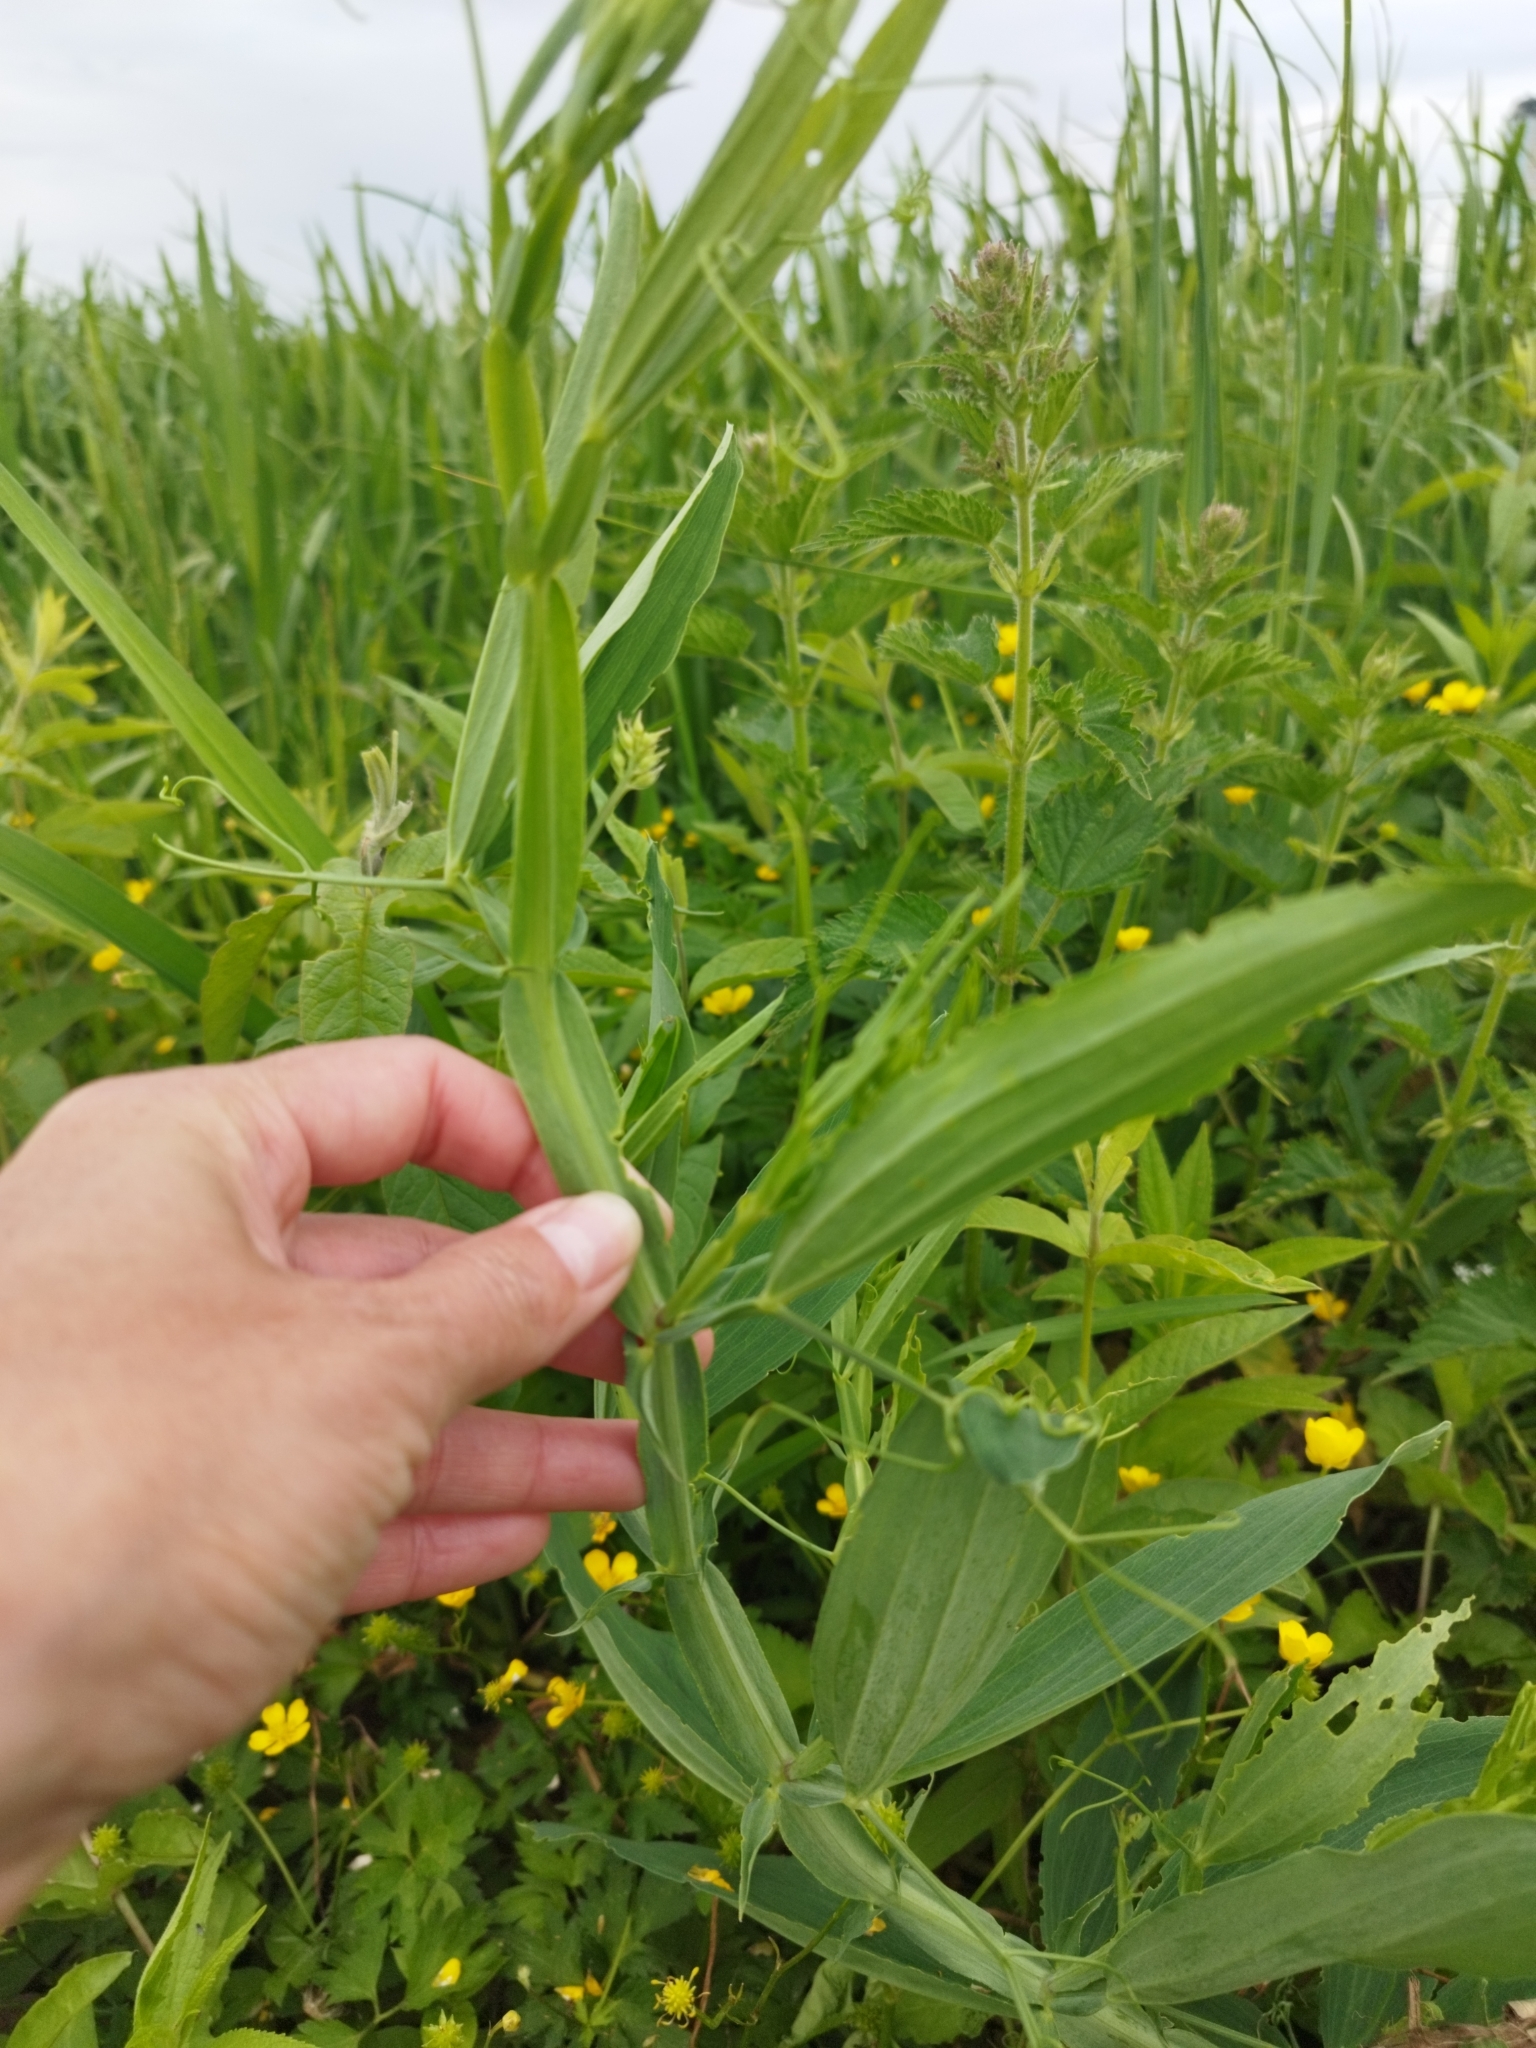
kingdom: Plantae
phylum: Tracheophyta
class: Magnoliopsida
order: Fabales
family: Fabaceae
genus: Lathyrus
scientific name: Lathyrus sylvestris
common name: Flat pea
